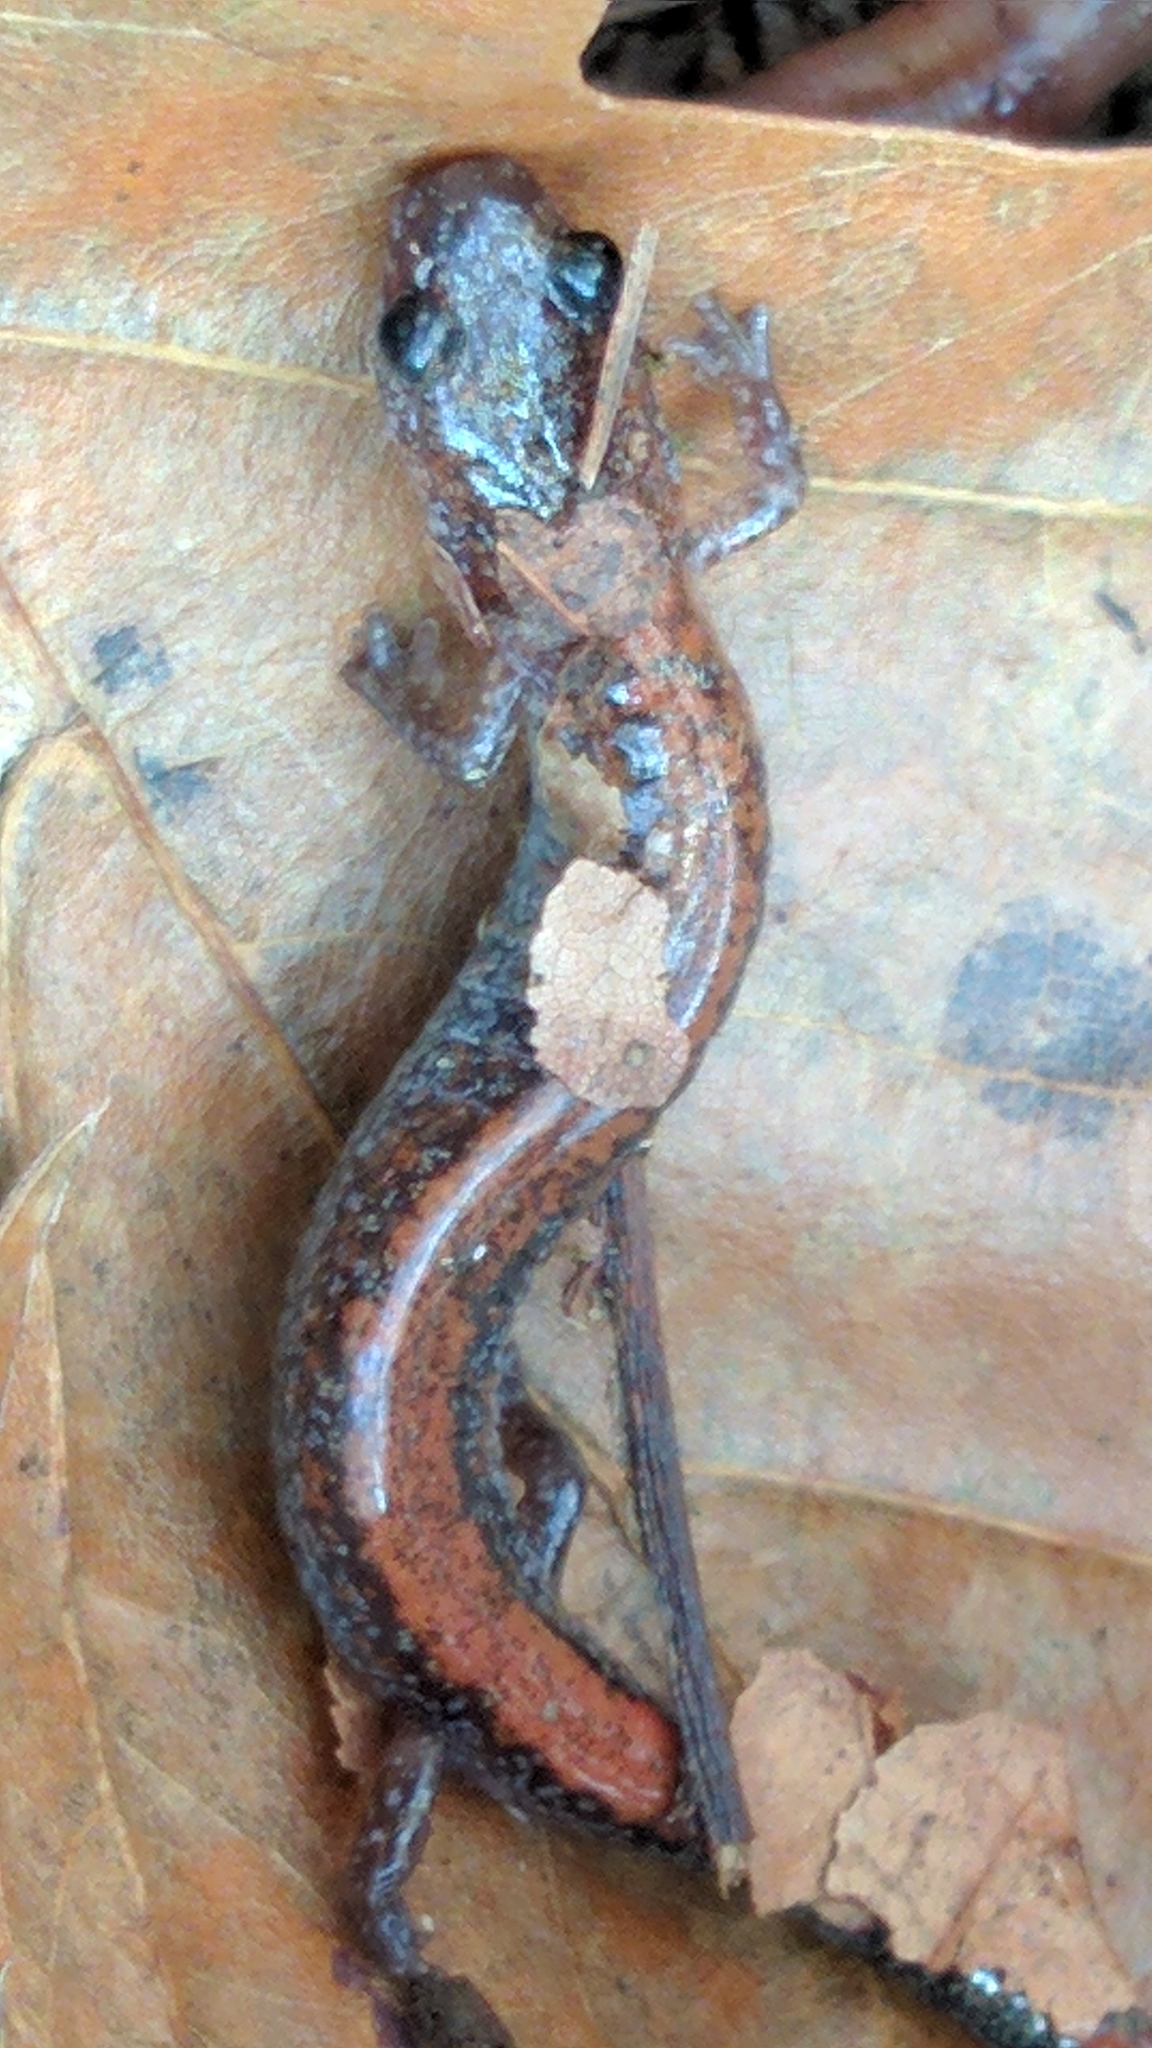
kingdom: Animalia
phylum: Chordata
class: Amphibia
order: Caudata
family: Plethodontidae
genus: Plethodon
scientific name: Plethodon cinereus
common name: Redback salamander
